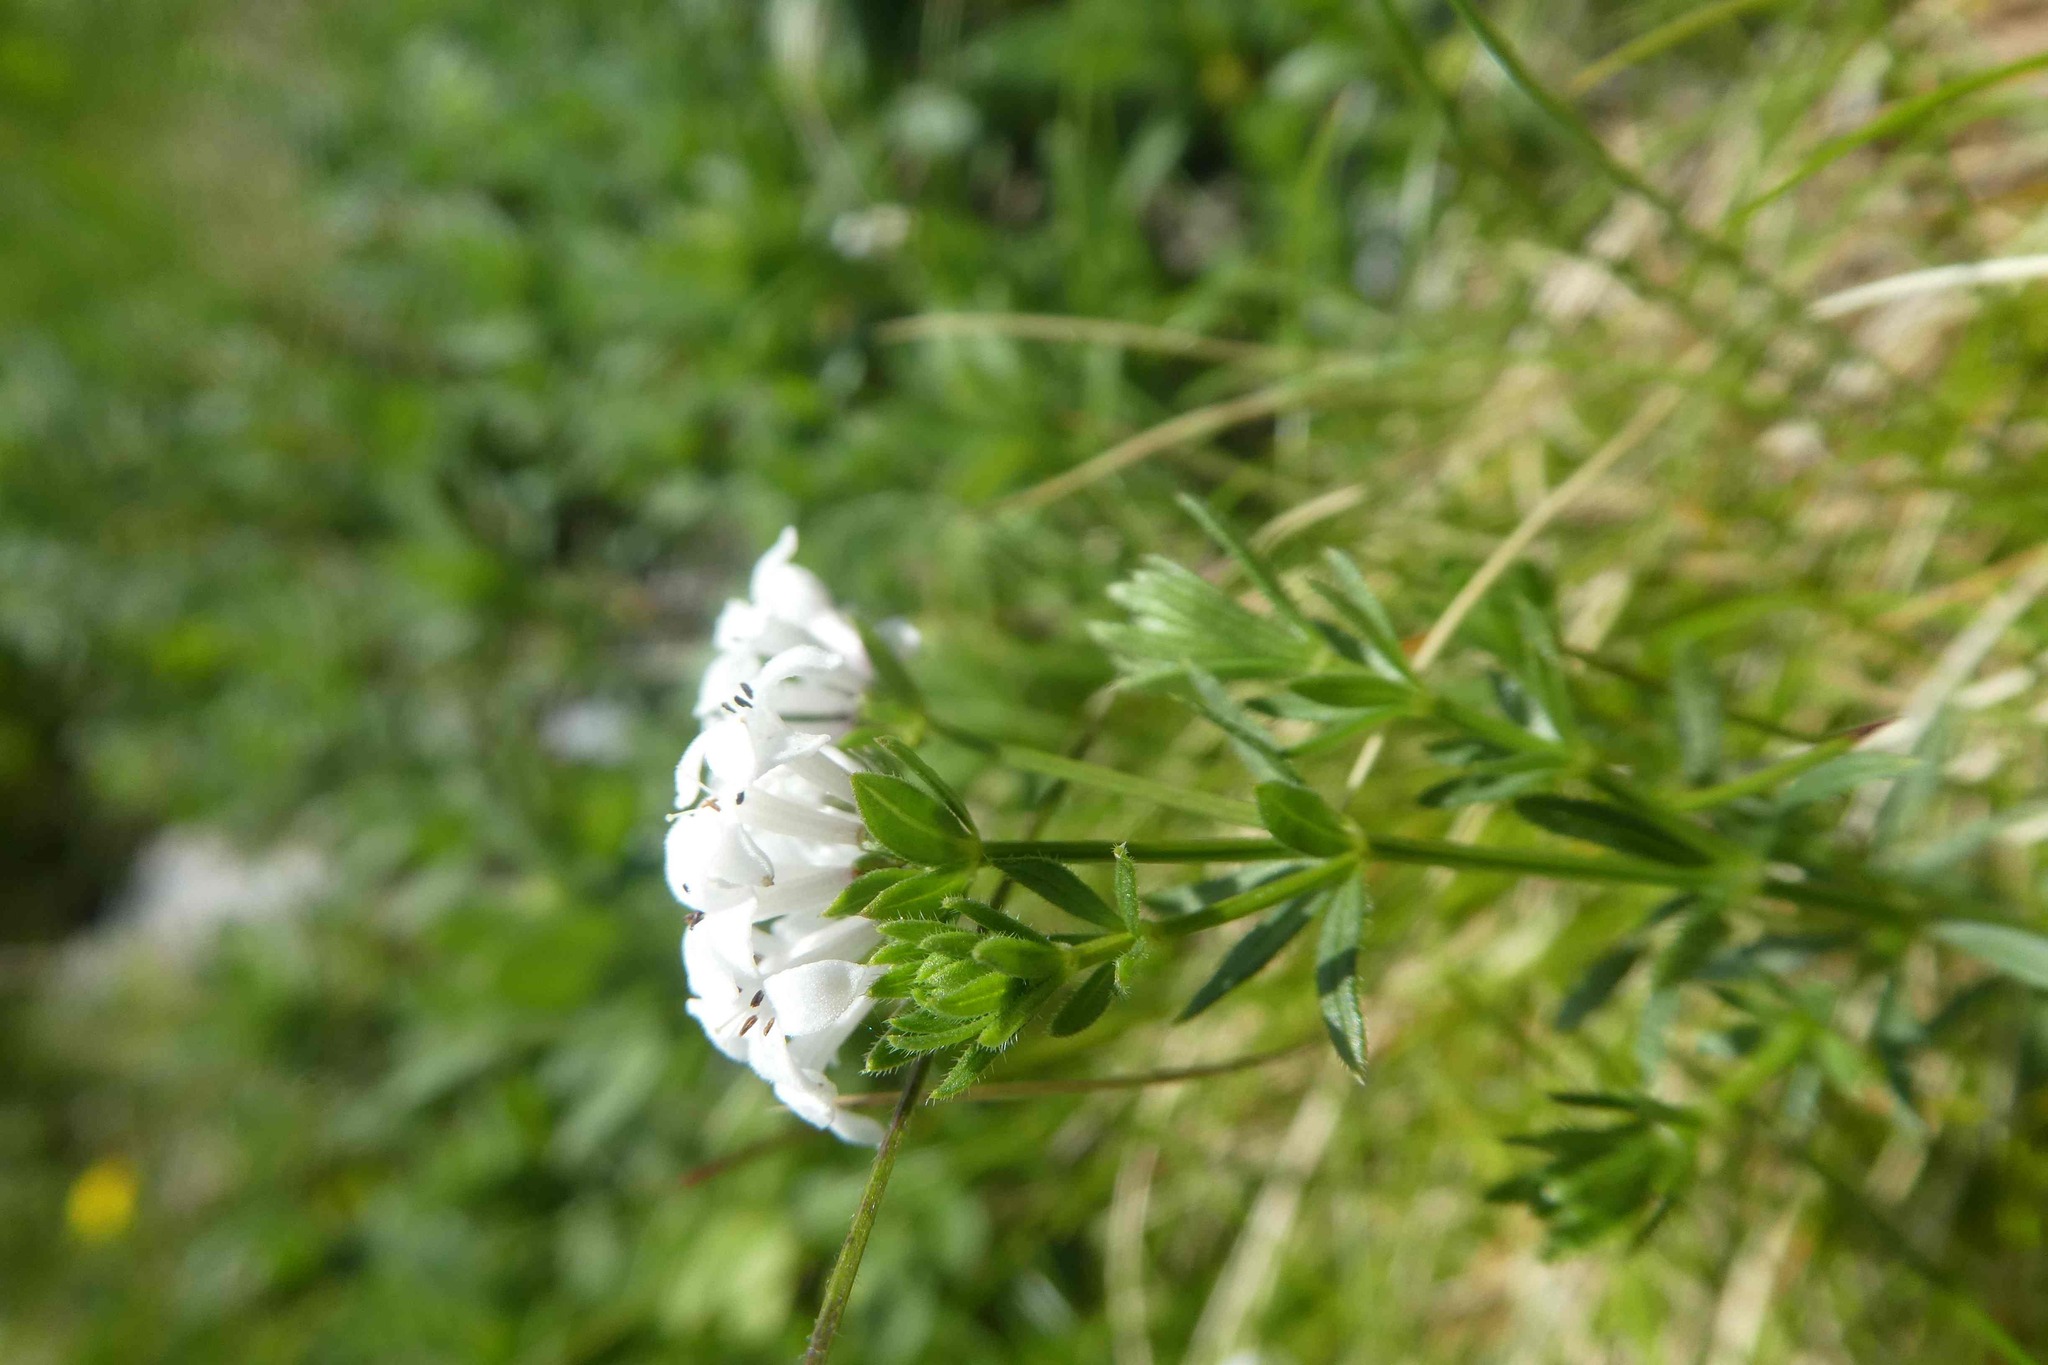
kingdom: Plantae
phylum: Tracheophyta
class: Magnoliopsida
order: Gentianales
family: Rubiaceae
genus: Hexaphylla
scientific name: Hexaphylla hirta
